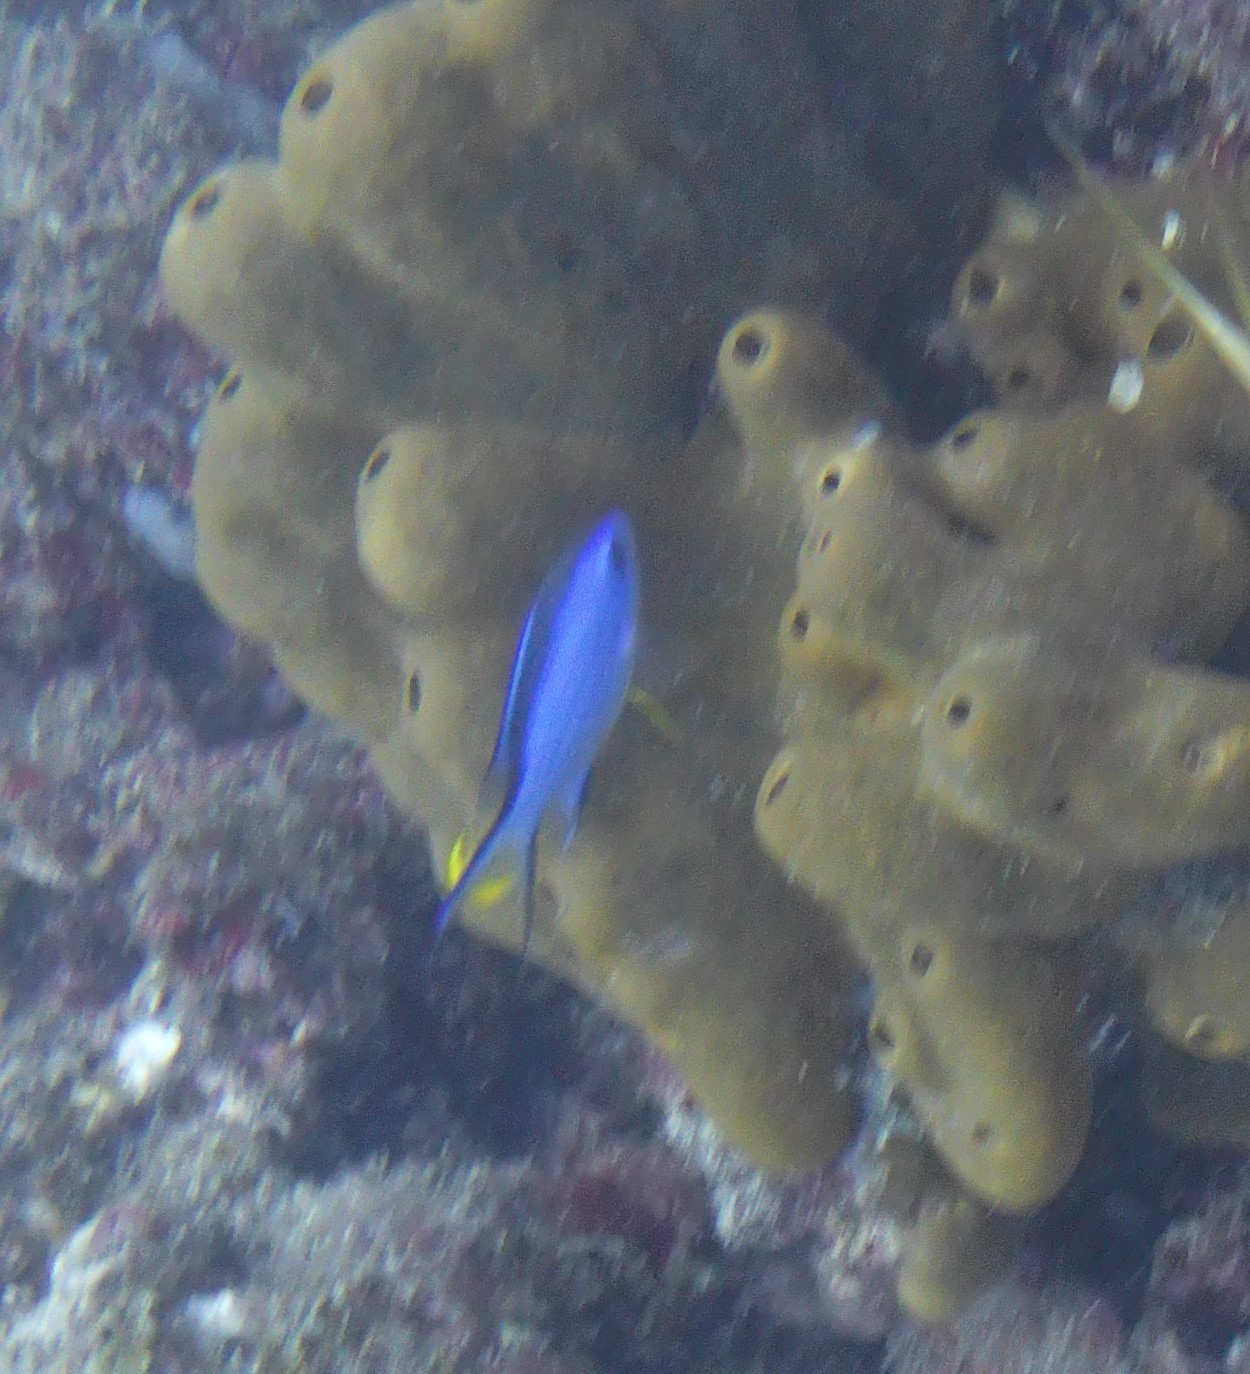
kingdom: Animalia
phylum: Chordata
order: Perciformes
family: Pomacentridae
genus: Chromis
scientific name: Chromis cyanea
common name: Blue chromis
